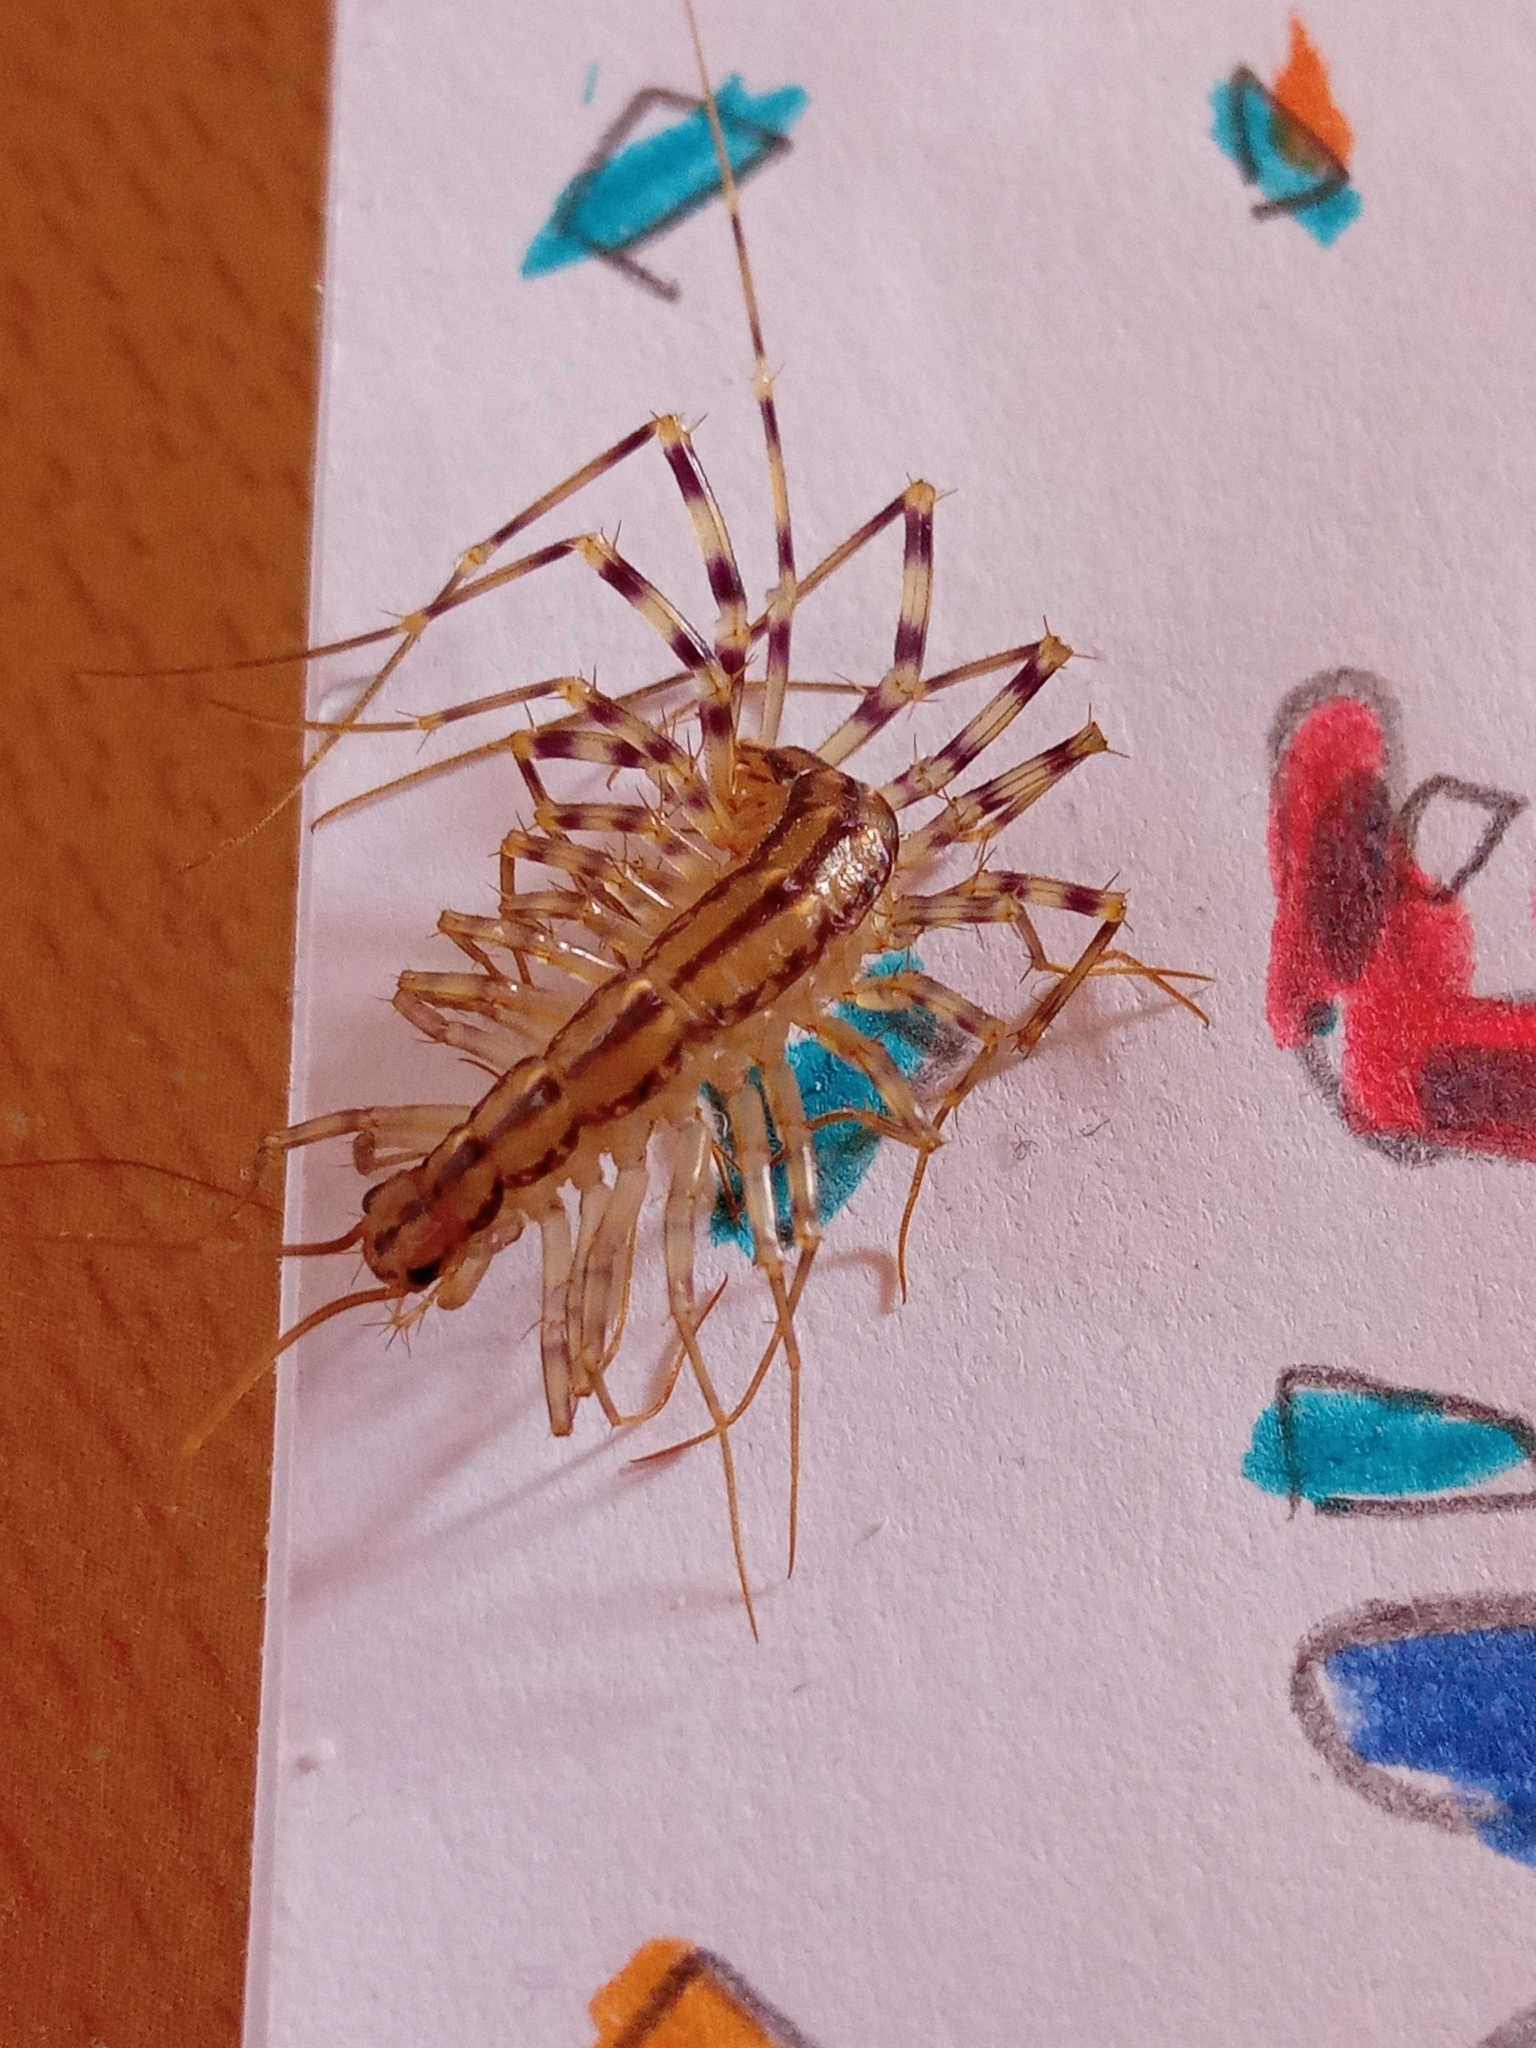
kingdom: Animalia
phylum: Arthropoda
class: Chilopoda
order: Scutigeromorpha
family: Scutigeridae
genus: Scutigera
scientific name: Scutigera coleoptrata
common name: House centipede
